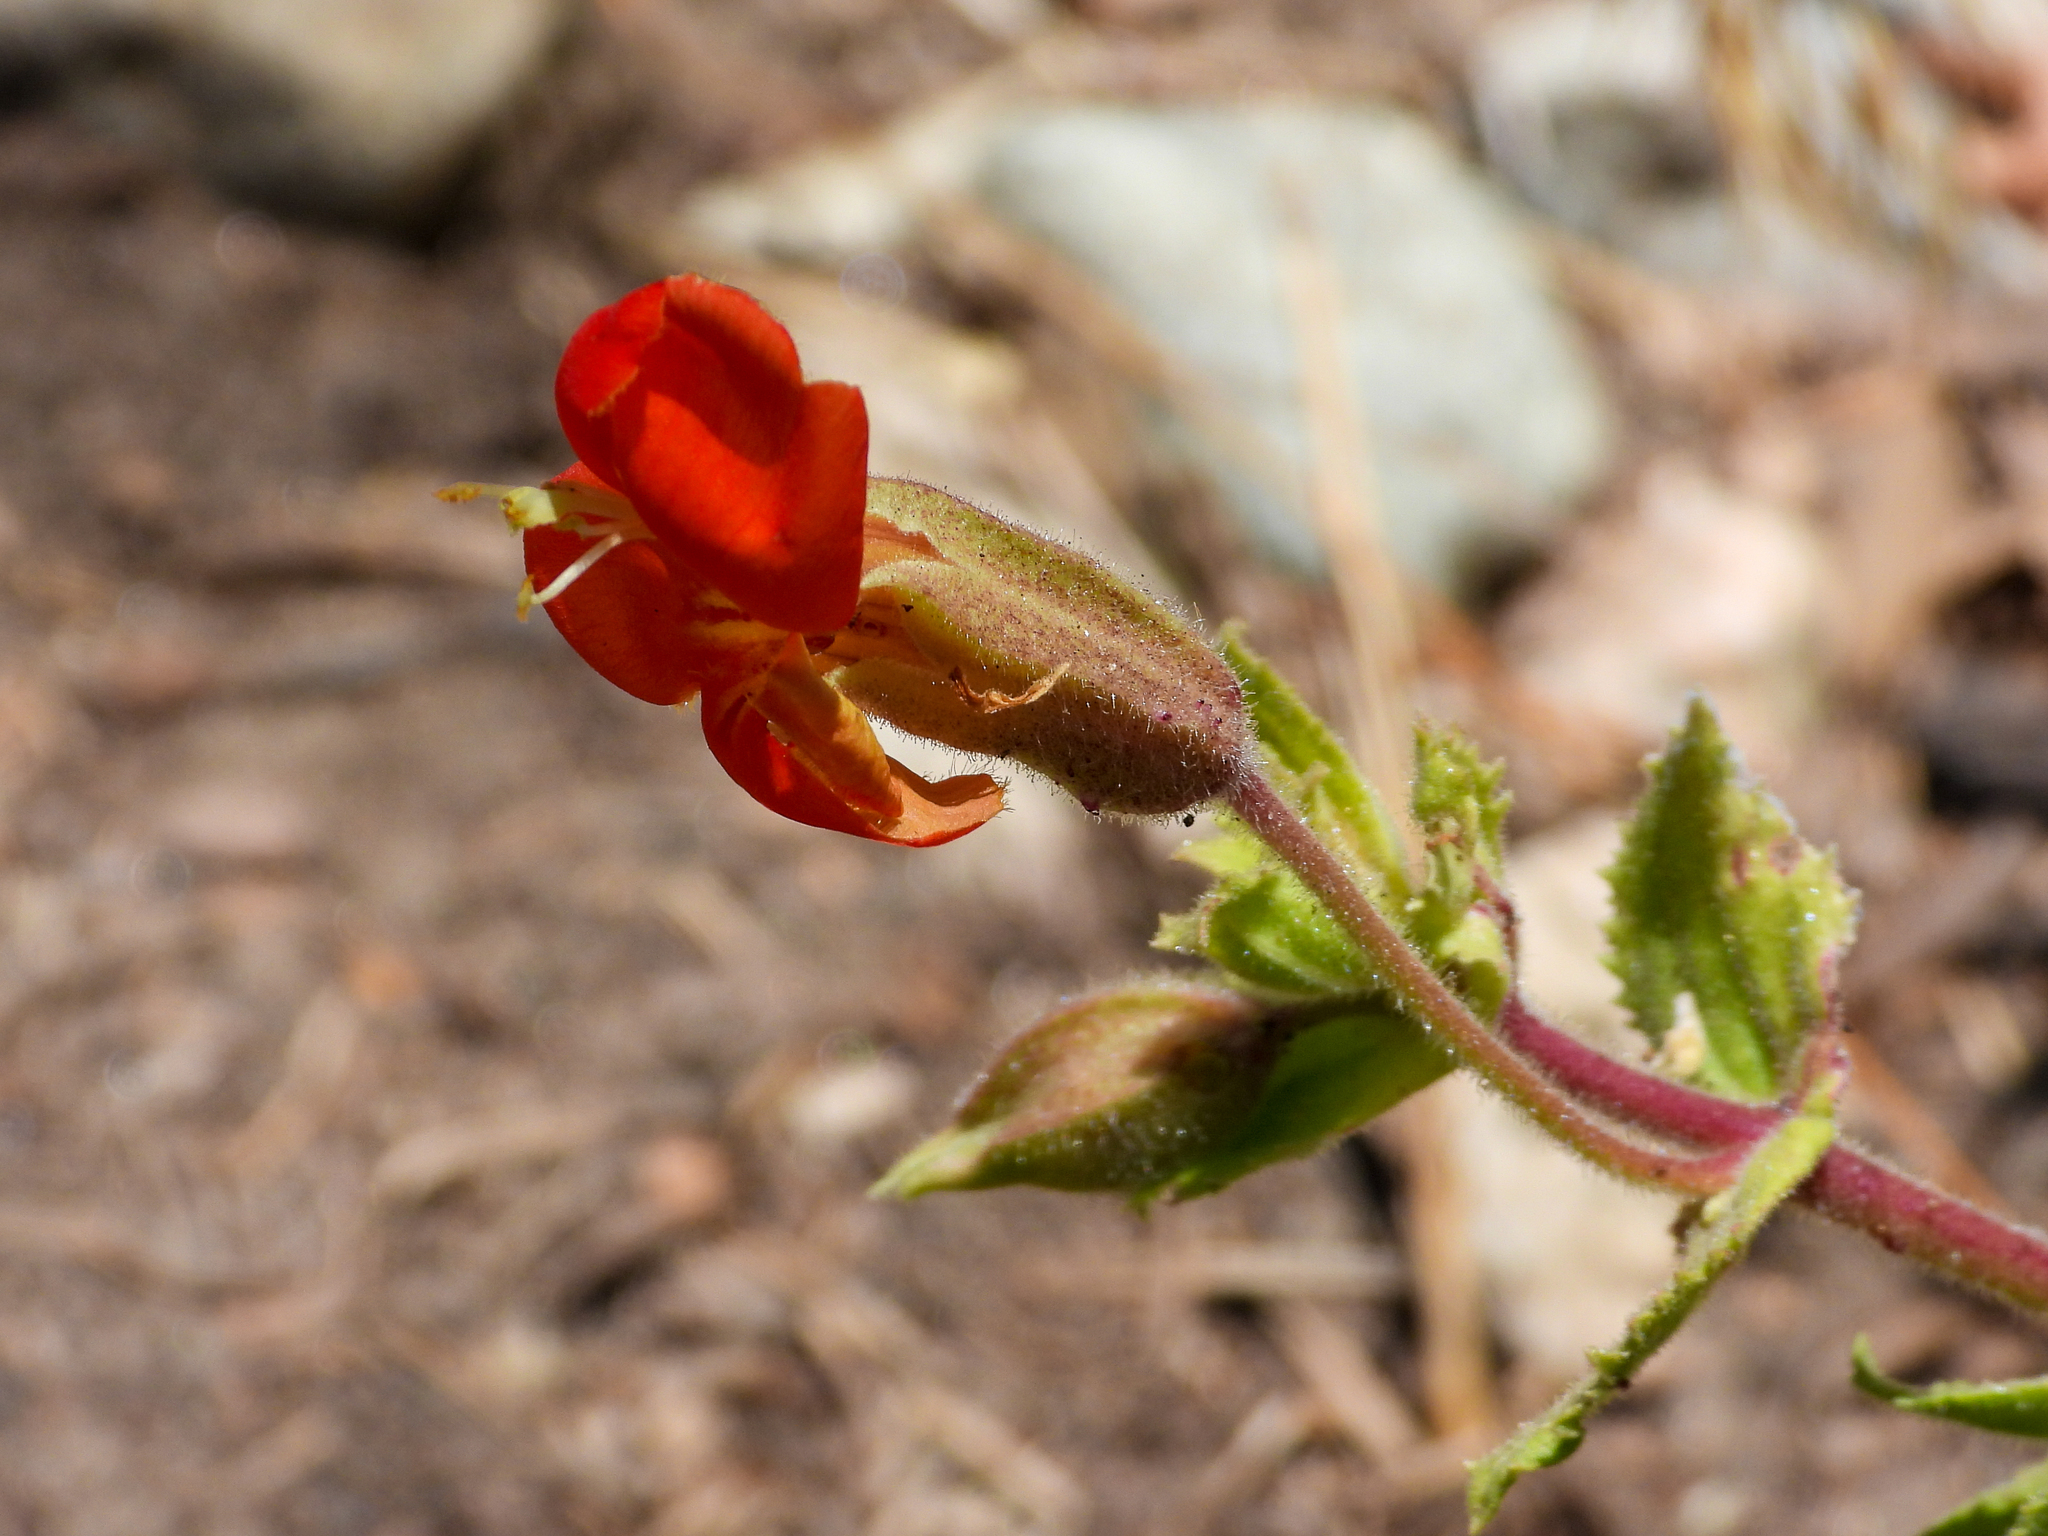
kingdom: Plantae
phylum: Tracheophyta
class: Magnoliopsida
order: Lamiales
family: Phrymaceae
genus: Erythranthe
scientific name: Erythranthe cardinalis
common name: Scarlet monkey-flower
